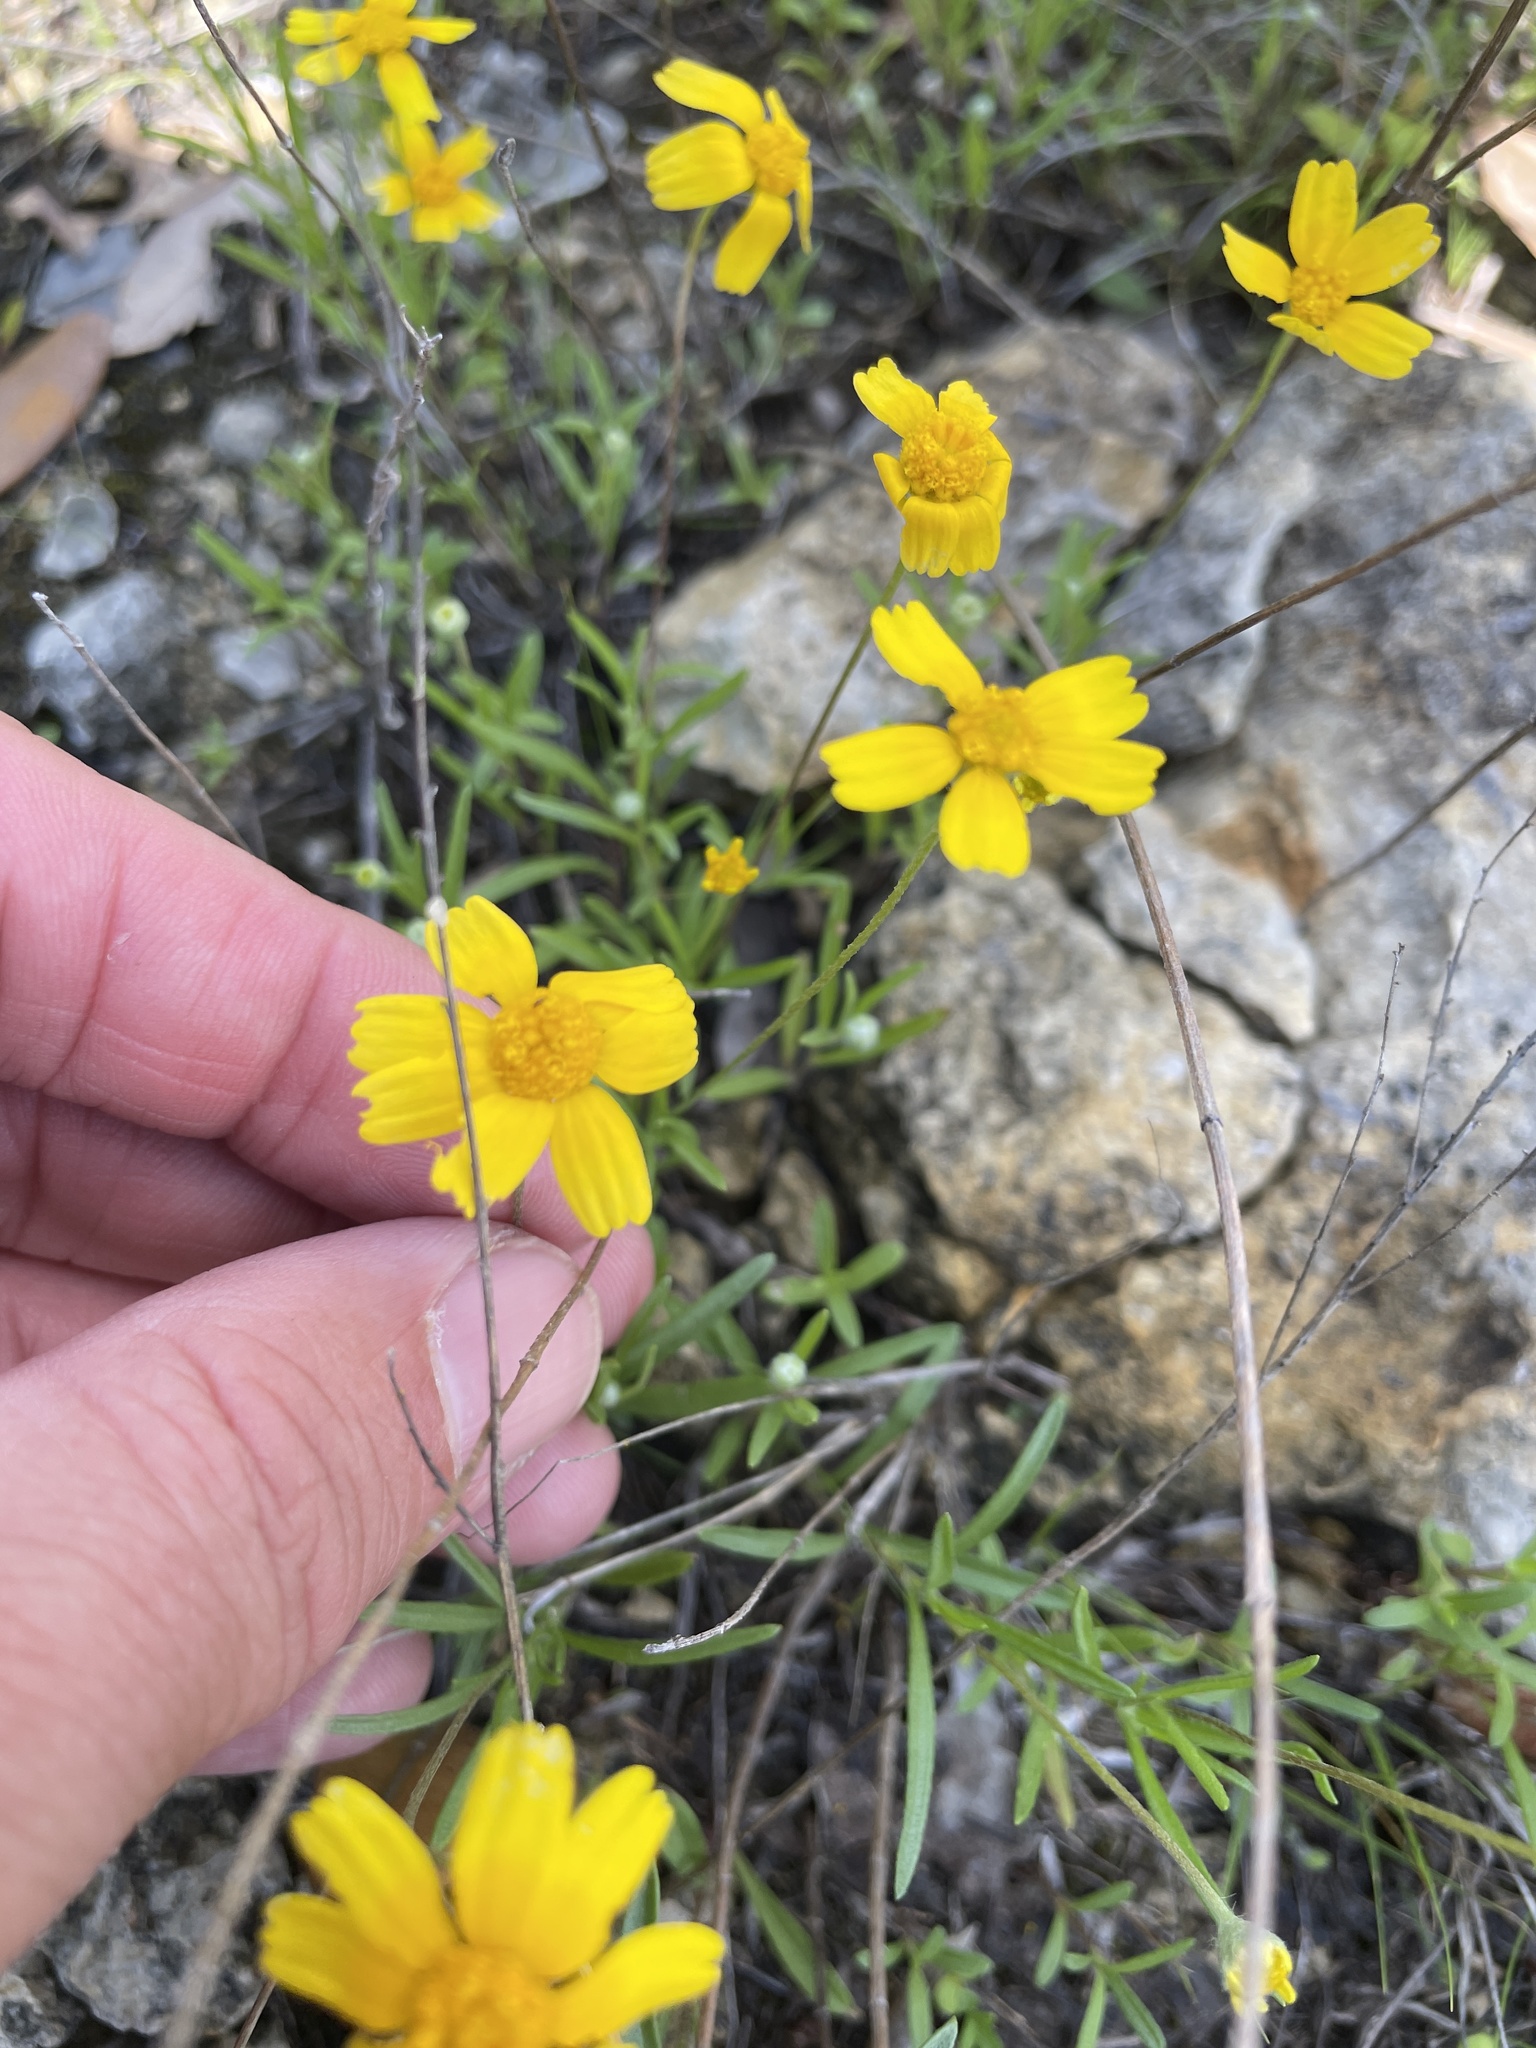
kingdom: Plantae
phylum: Tracheophyta
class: Magnoliopsida
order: Asterales
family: Asteraceae
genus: Tetraneuris
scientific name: Tetraneuris linearifolia
